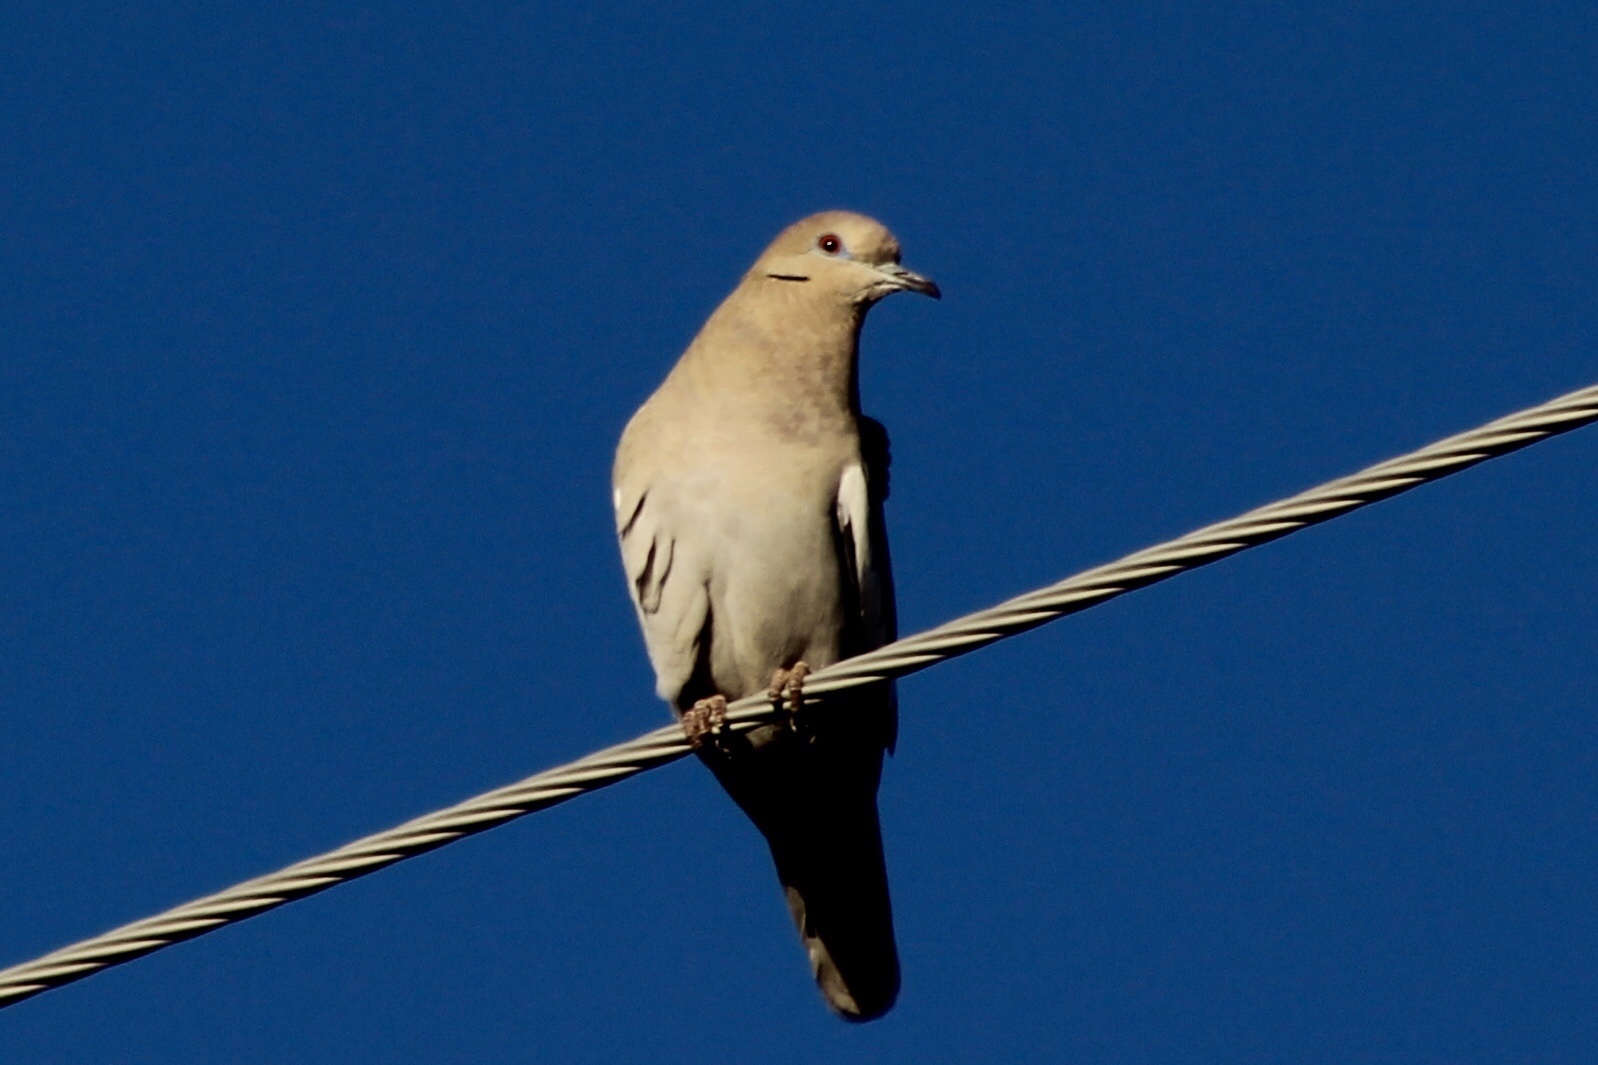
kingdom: Animalia
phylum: Chordata
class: Aves
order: Columbiformes
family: Columbidae
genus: Zenaida
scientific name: Zenaida asiatica
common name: White-winged dove
